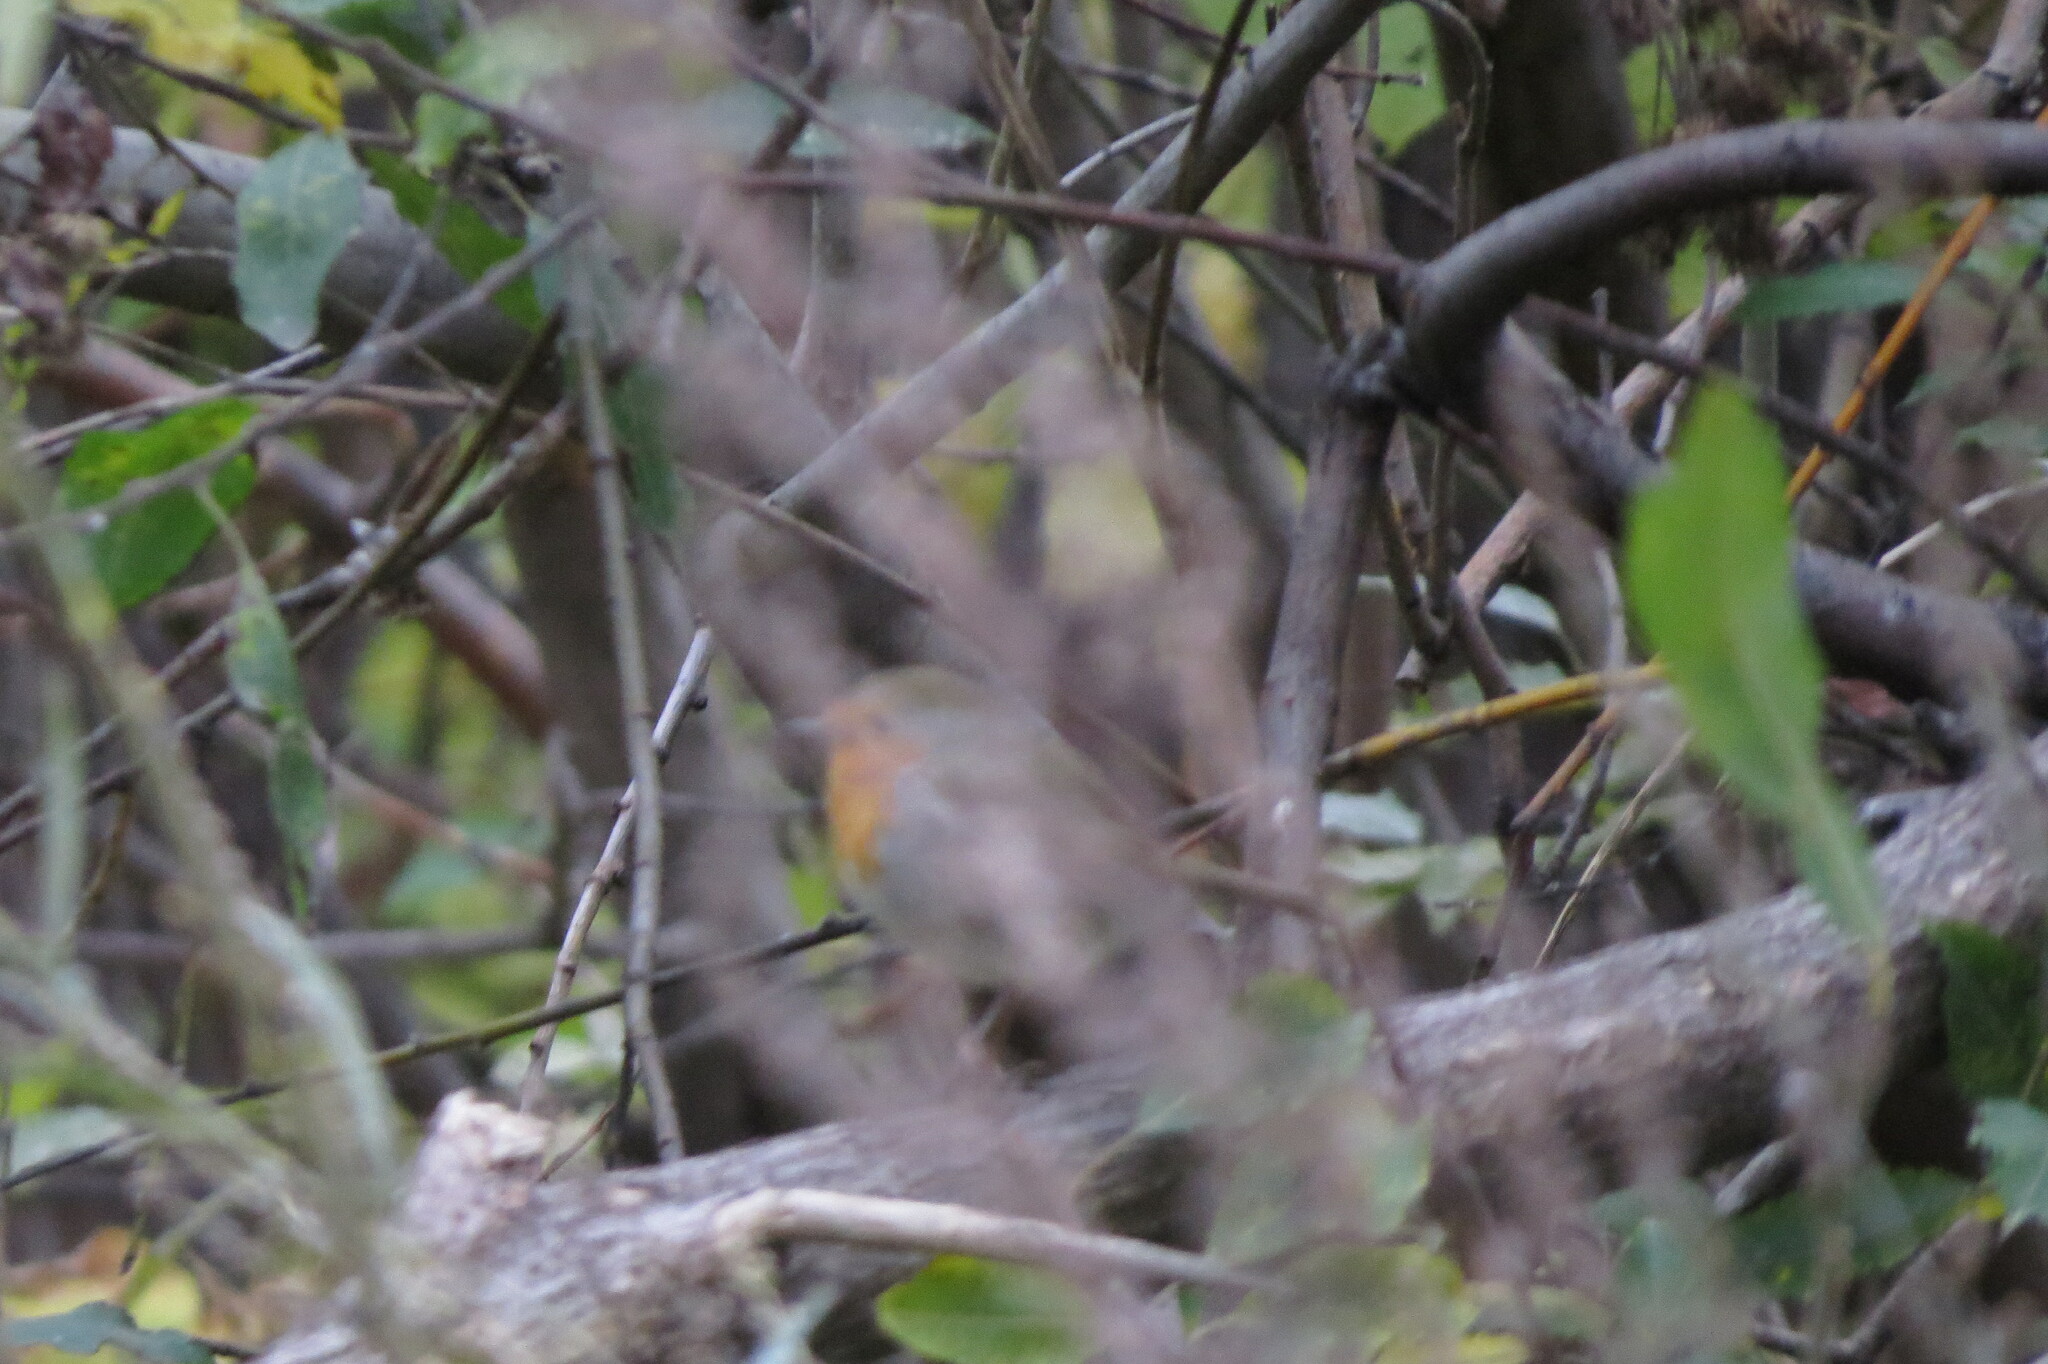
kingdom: Animalia
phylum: Chordata
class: Aves
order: Passeriformes
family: Muscicapidae
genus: Erithacus
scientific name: Erithacus rubecula
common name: European robin
